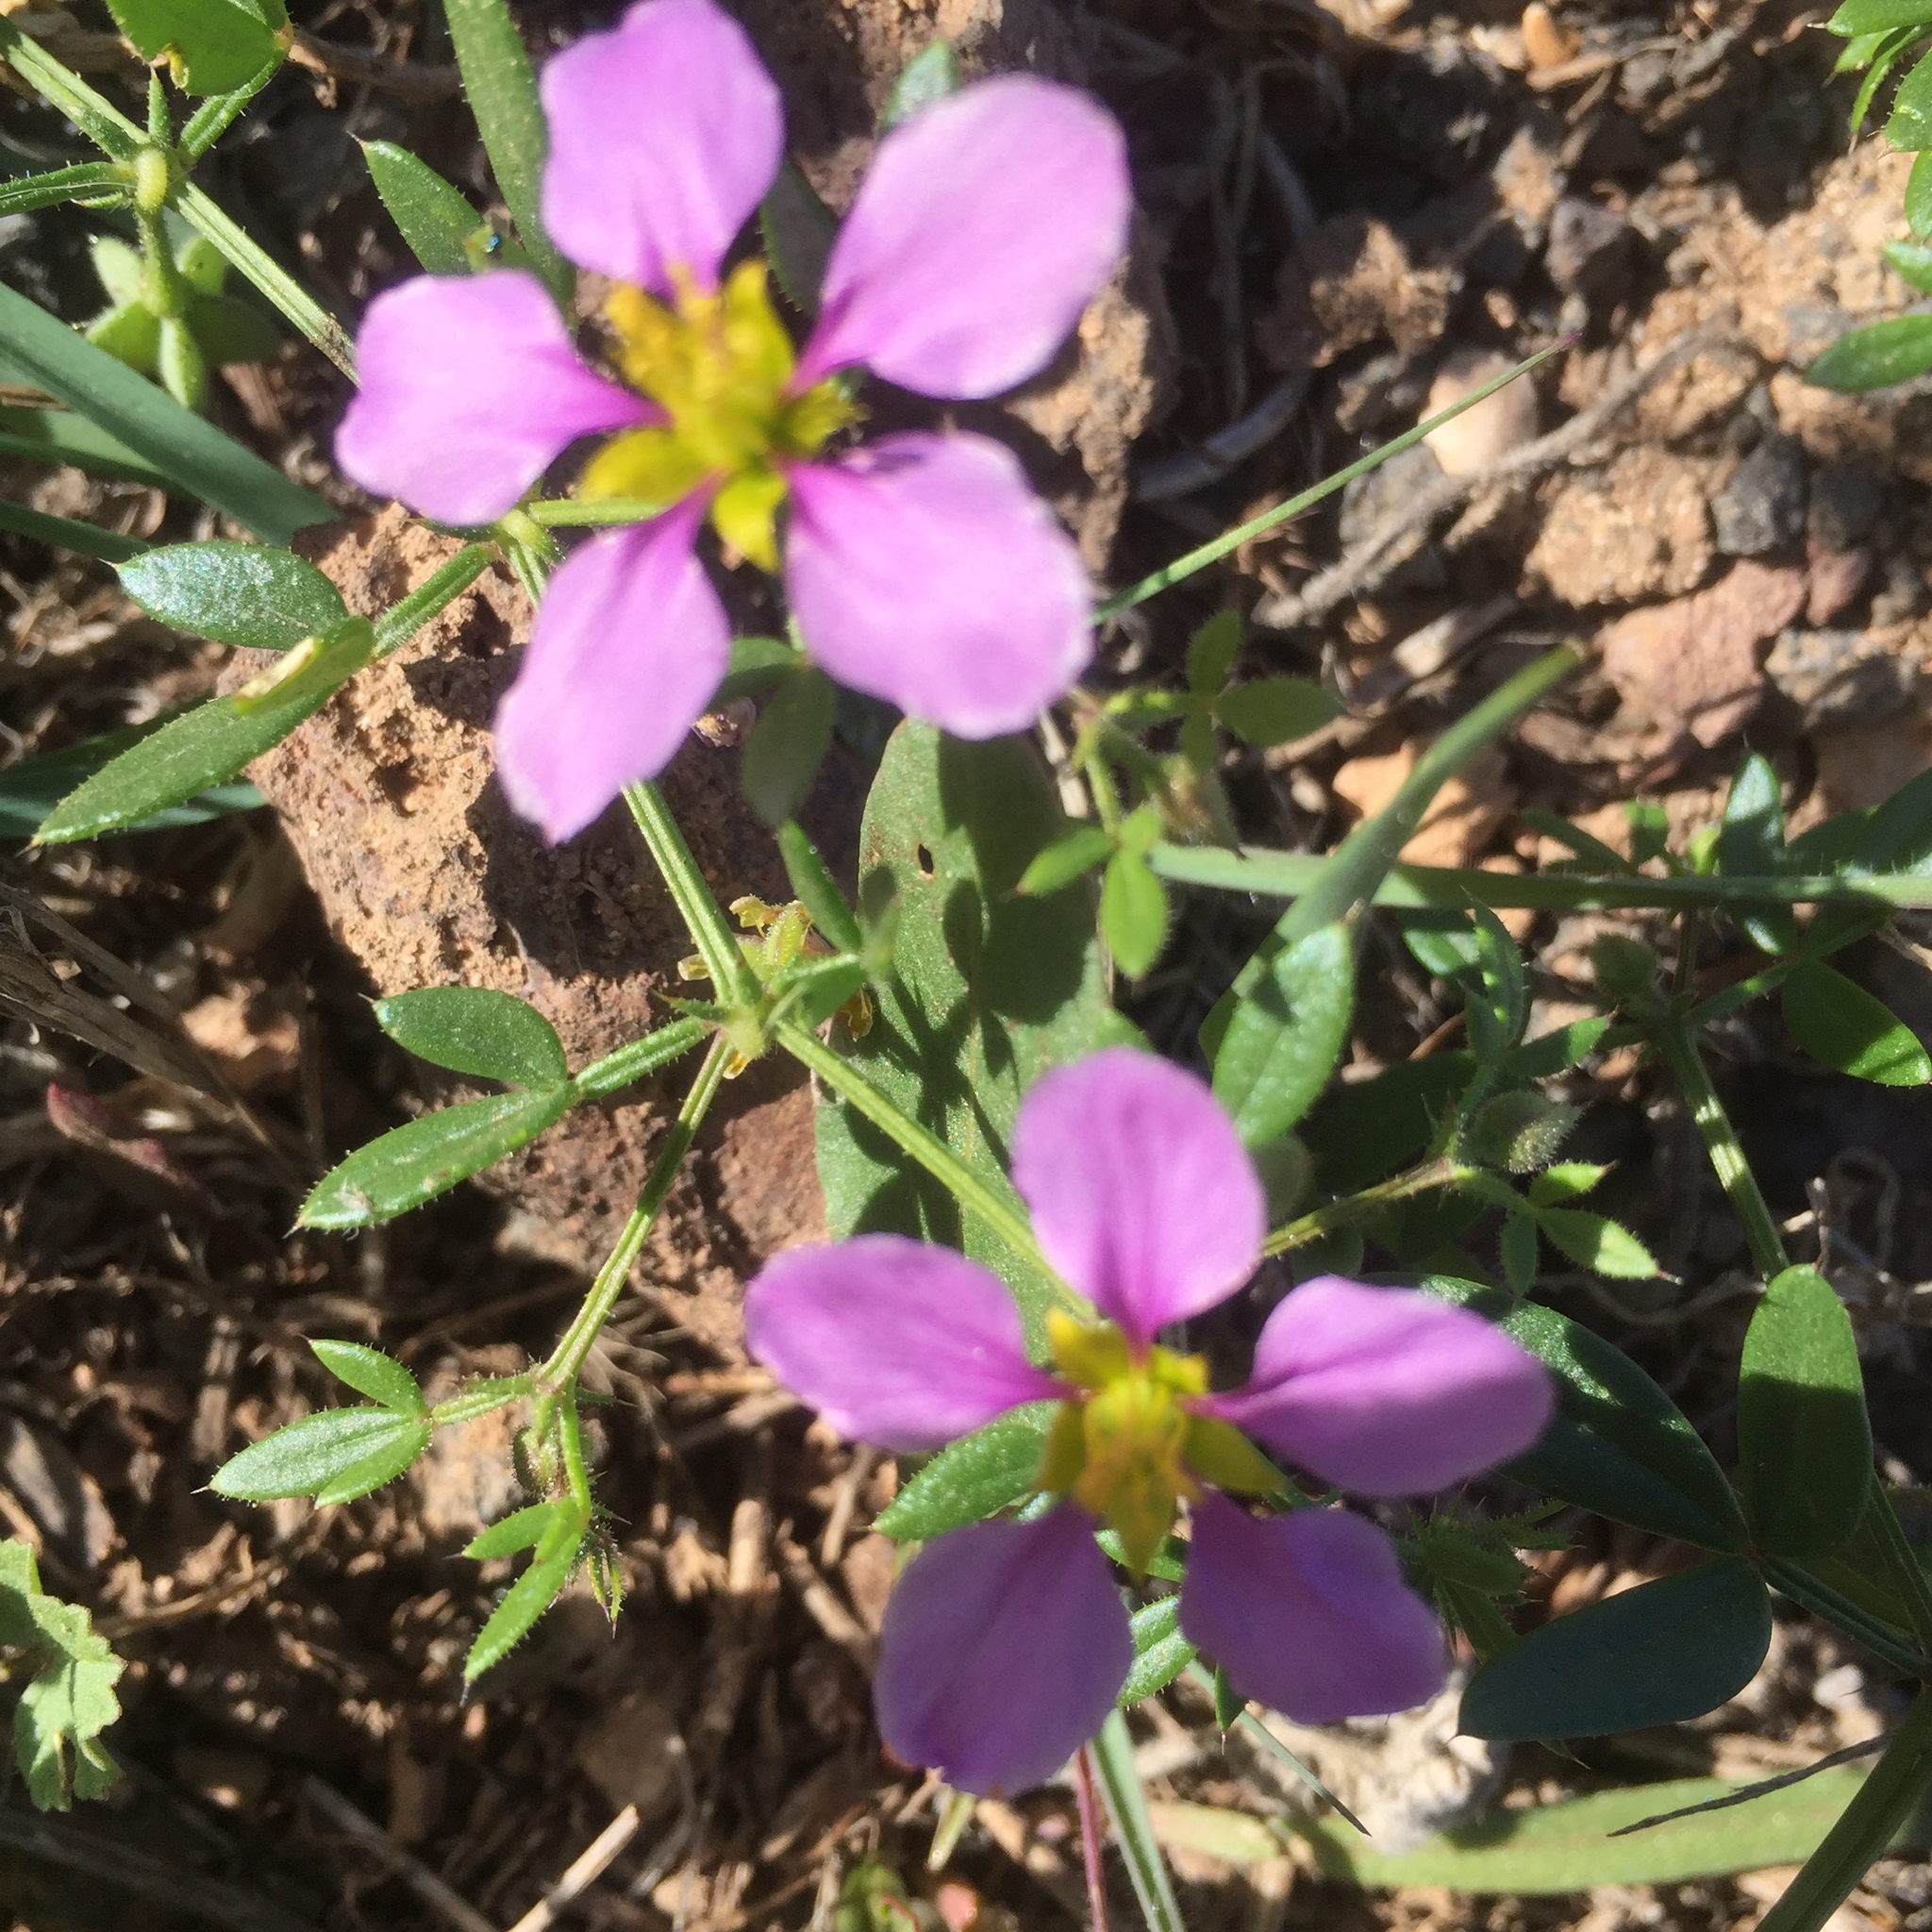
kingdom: Plantae
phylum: Tracheophyta
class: Magnoliopsida
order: Zygophyllales
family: Zygophyllaceae
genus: Fagonia
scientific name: Fagonia cretica
